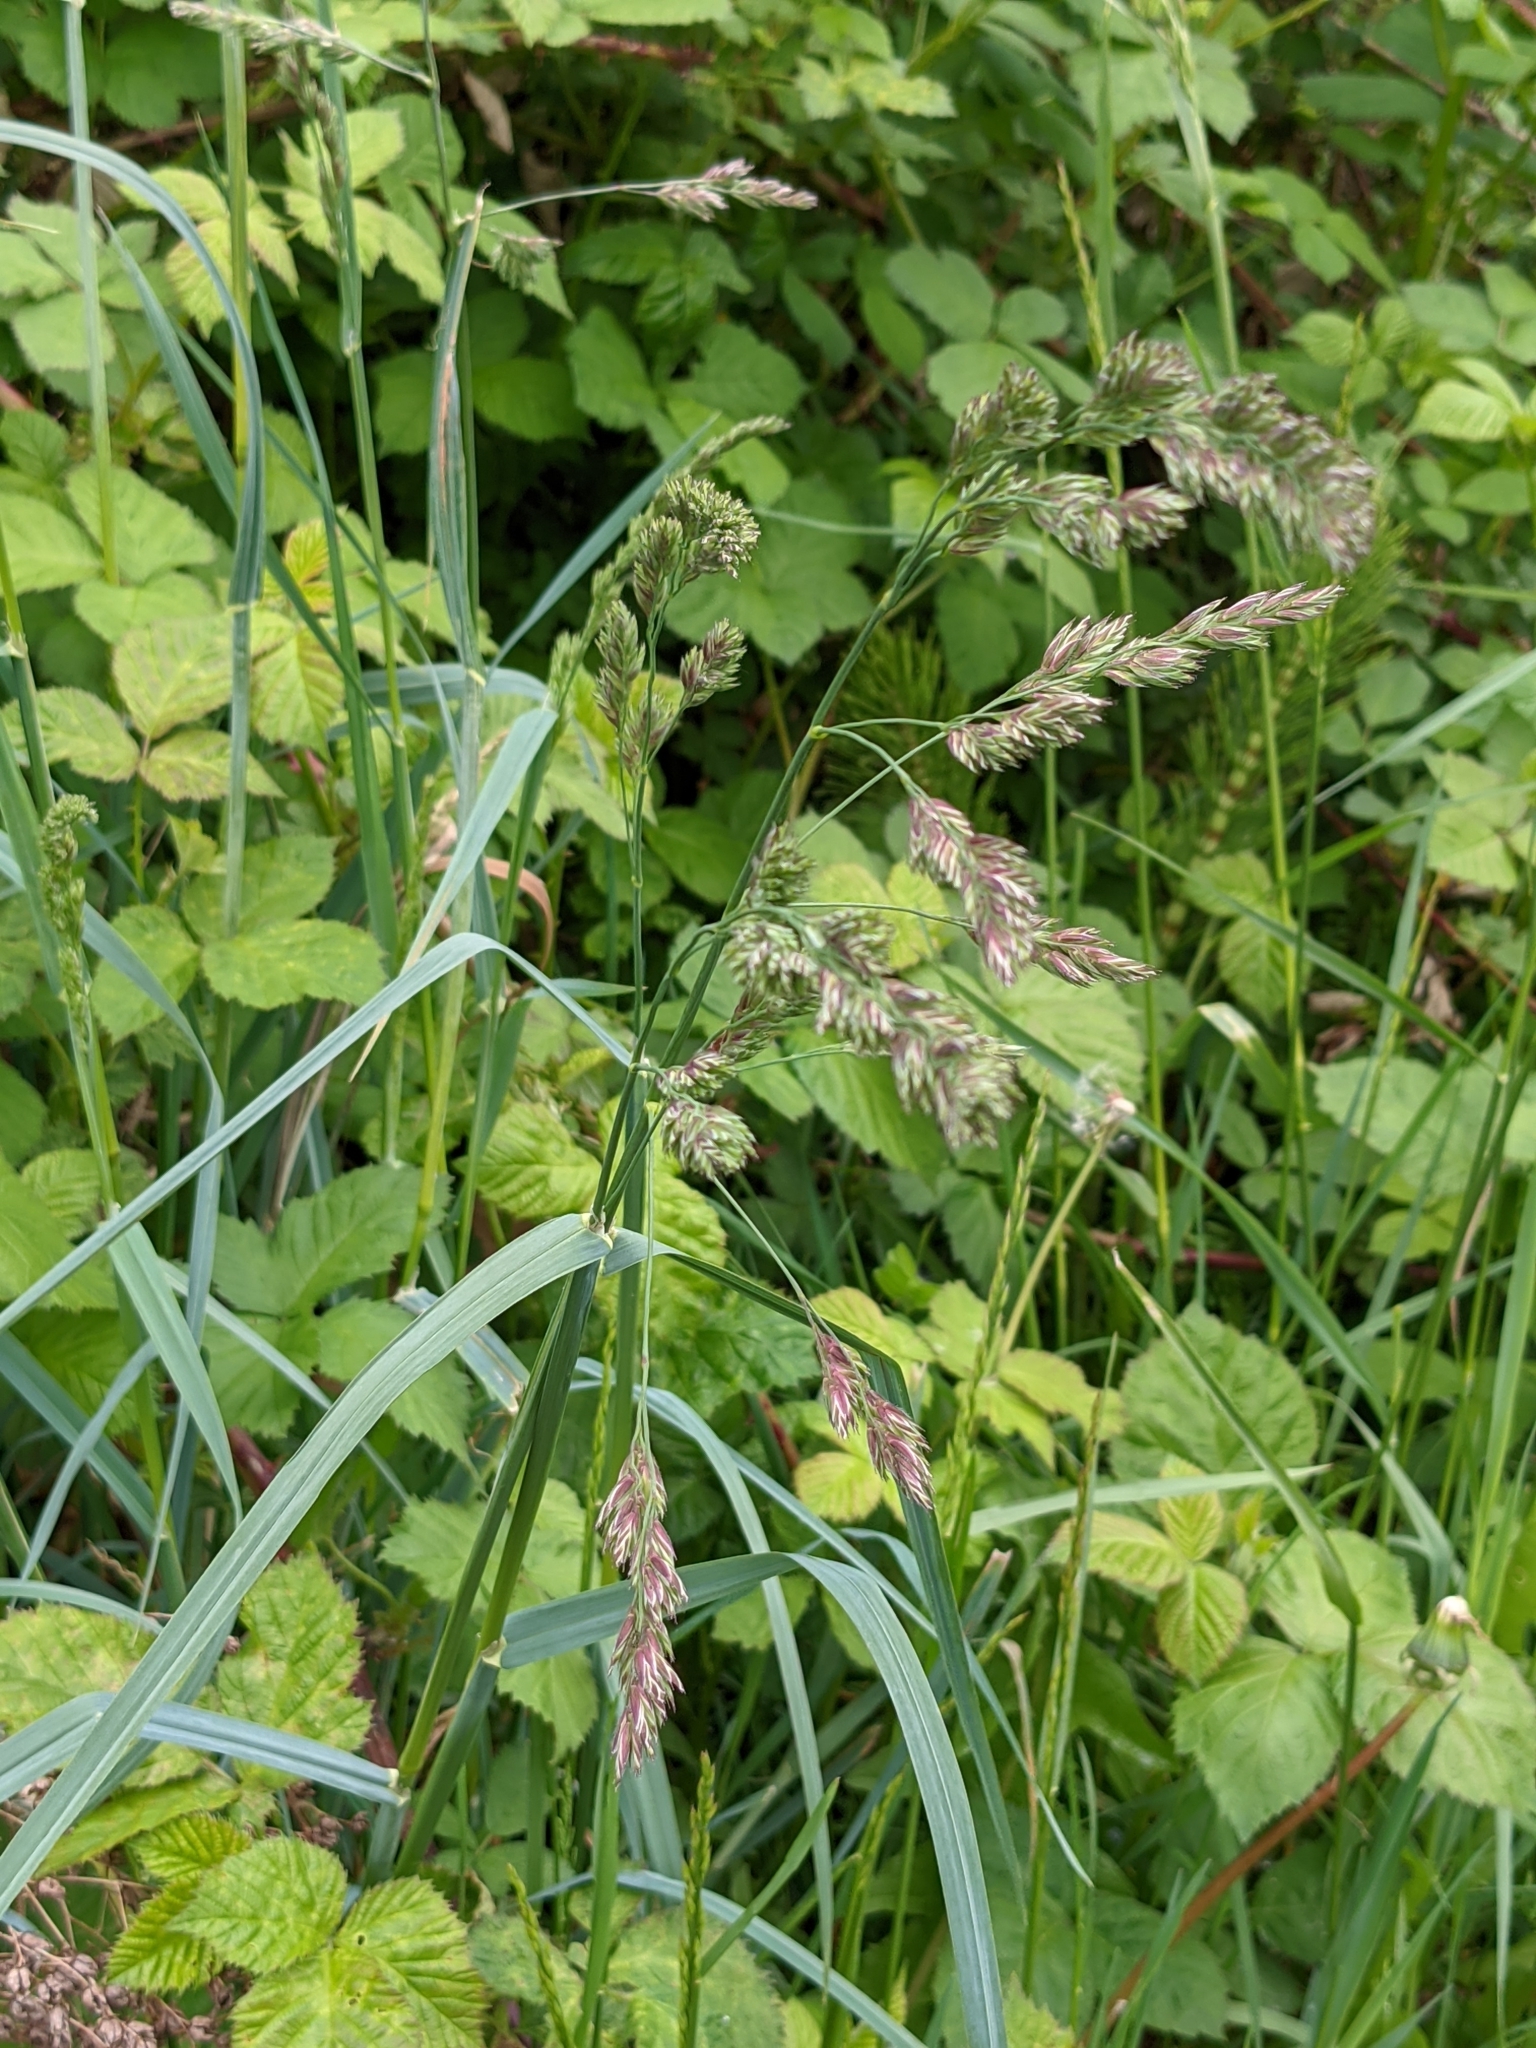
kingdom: Plantae
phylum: Tracheophyta
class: Liliopsida
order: Poales
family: Poaceae
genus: Dactylis
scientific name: Dactylis glomerata
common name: Orchardgrass
